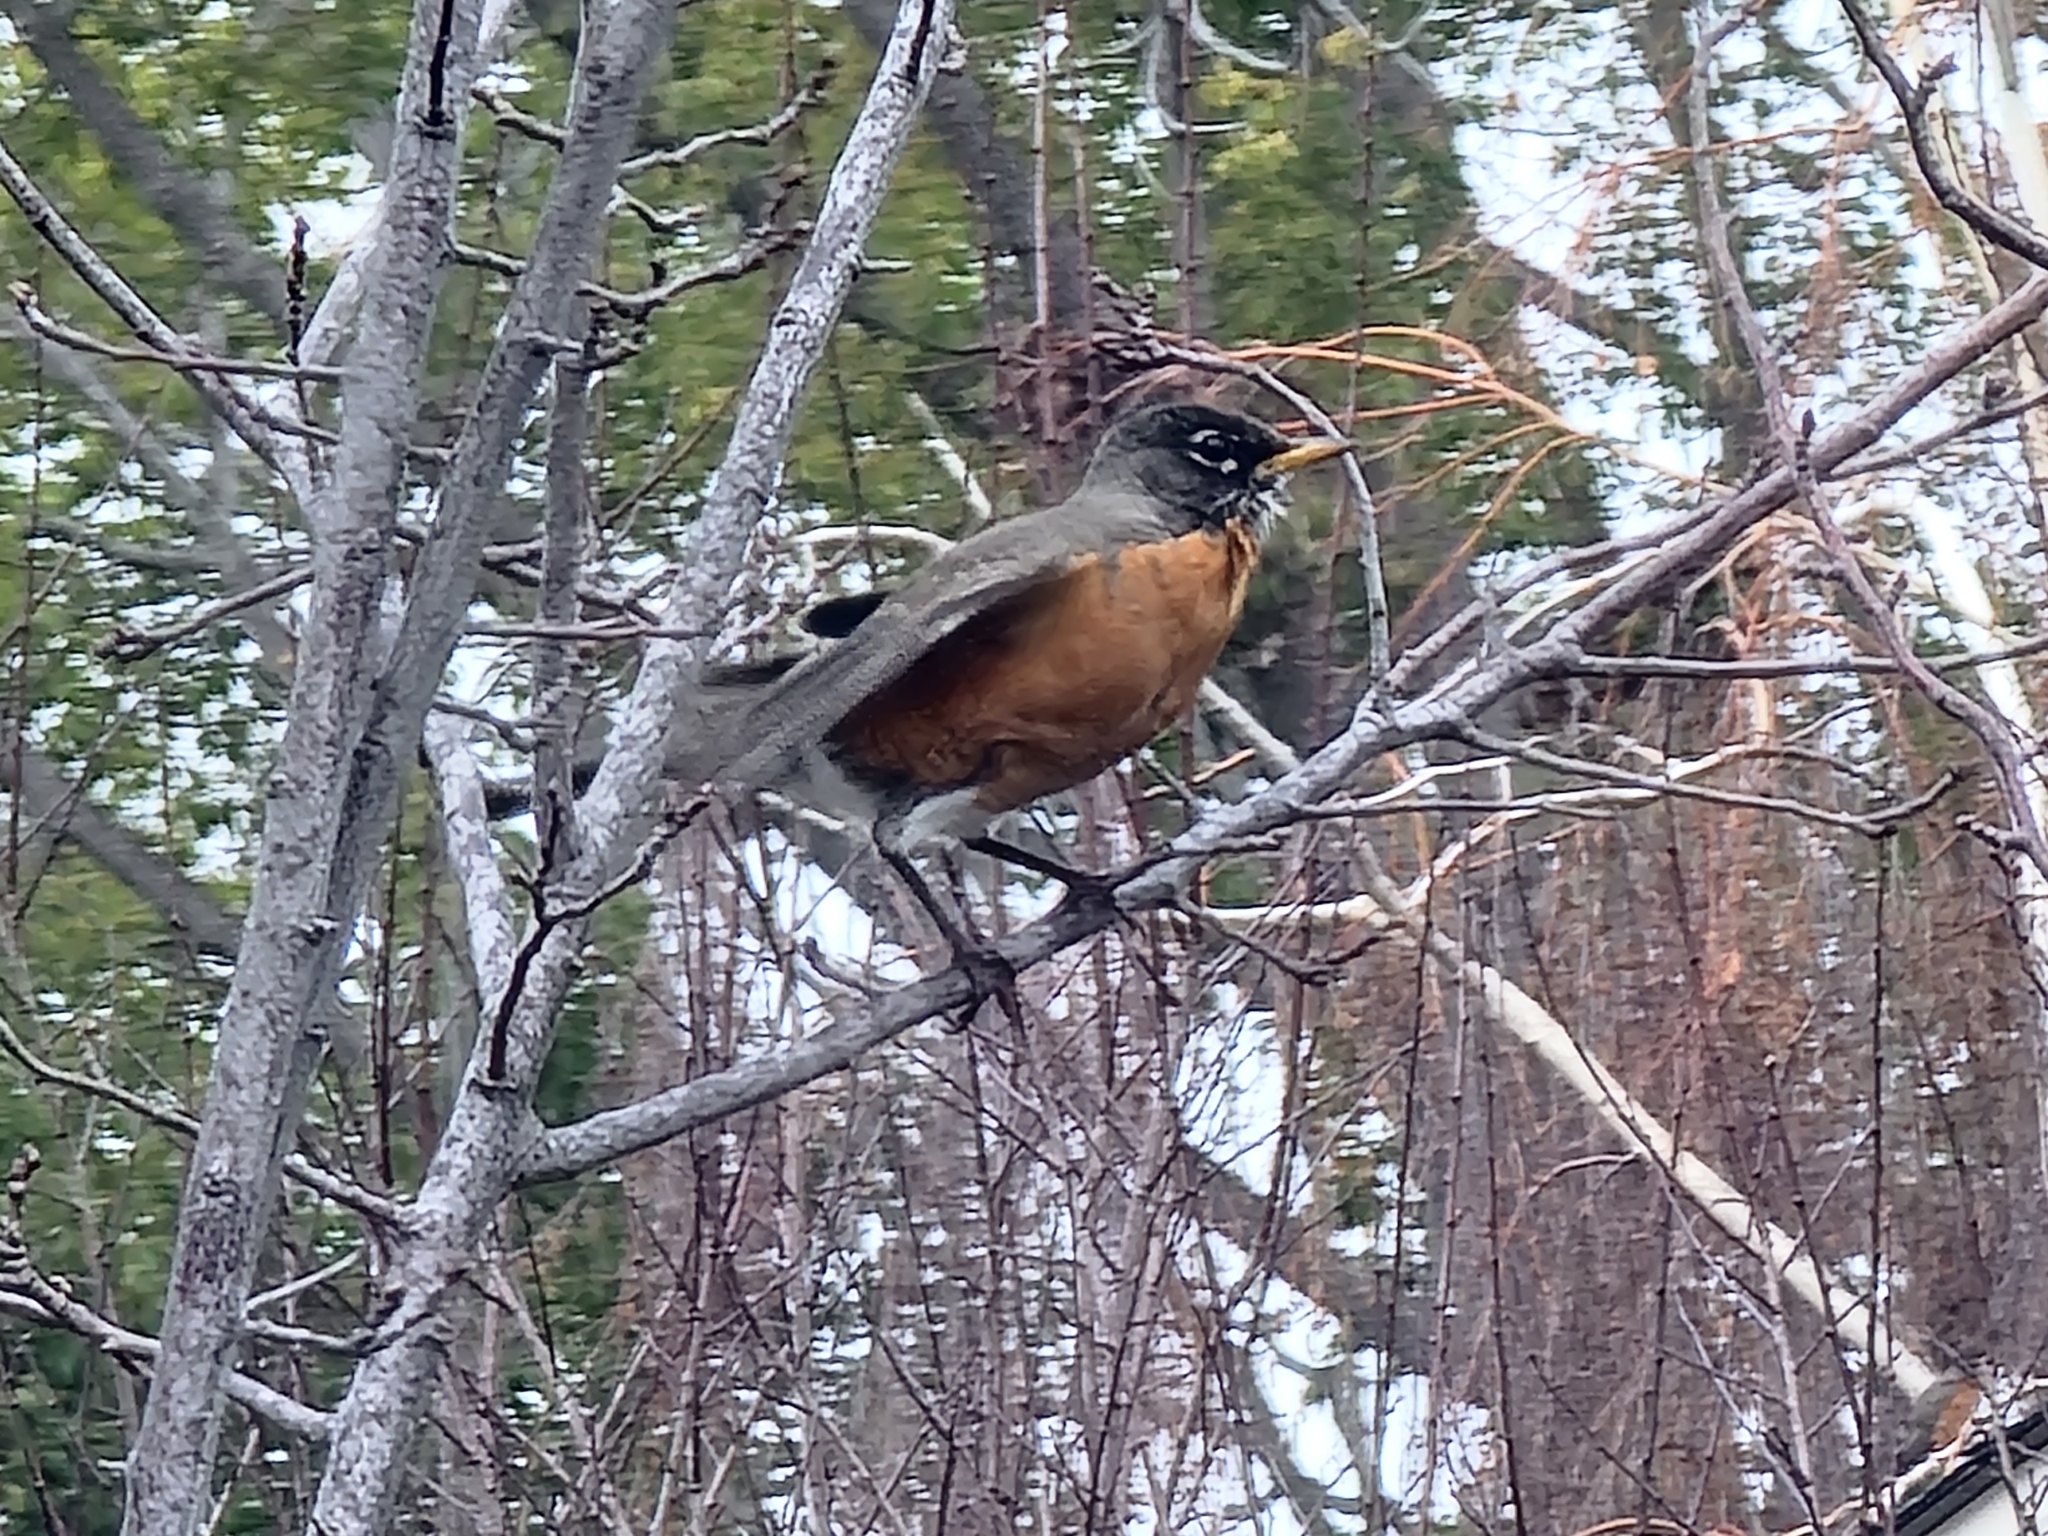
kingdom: Animalia
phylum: Chordata
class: Aves
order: Passeriformes
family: Turdidae
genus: Turdus
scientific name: Turdus migratorius
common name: American robin
